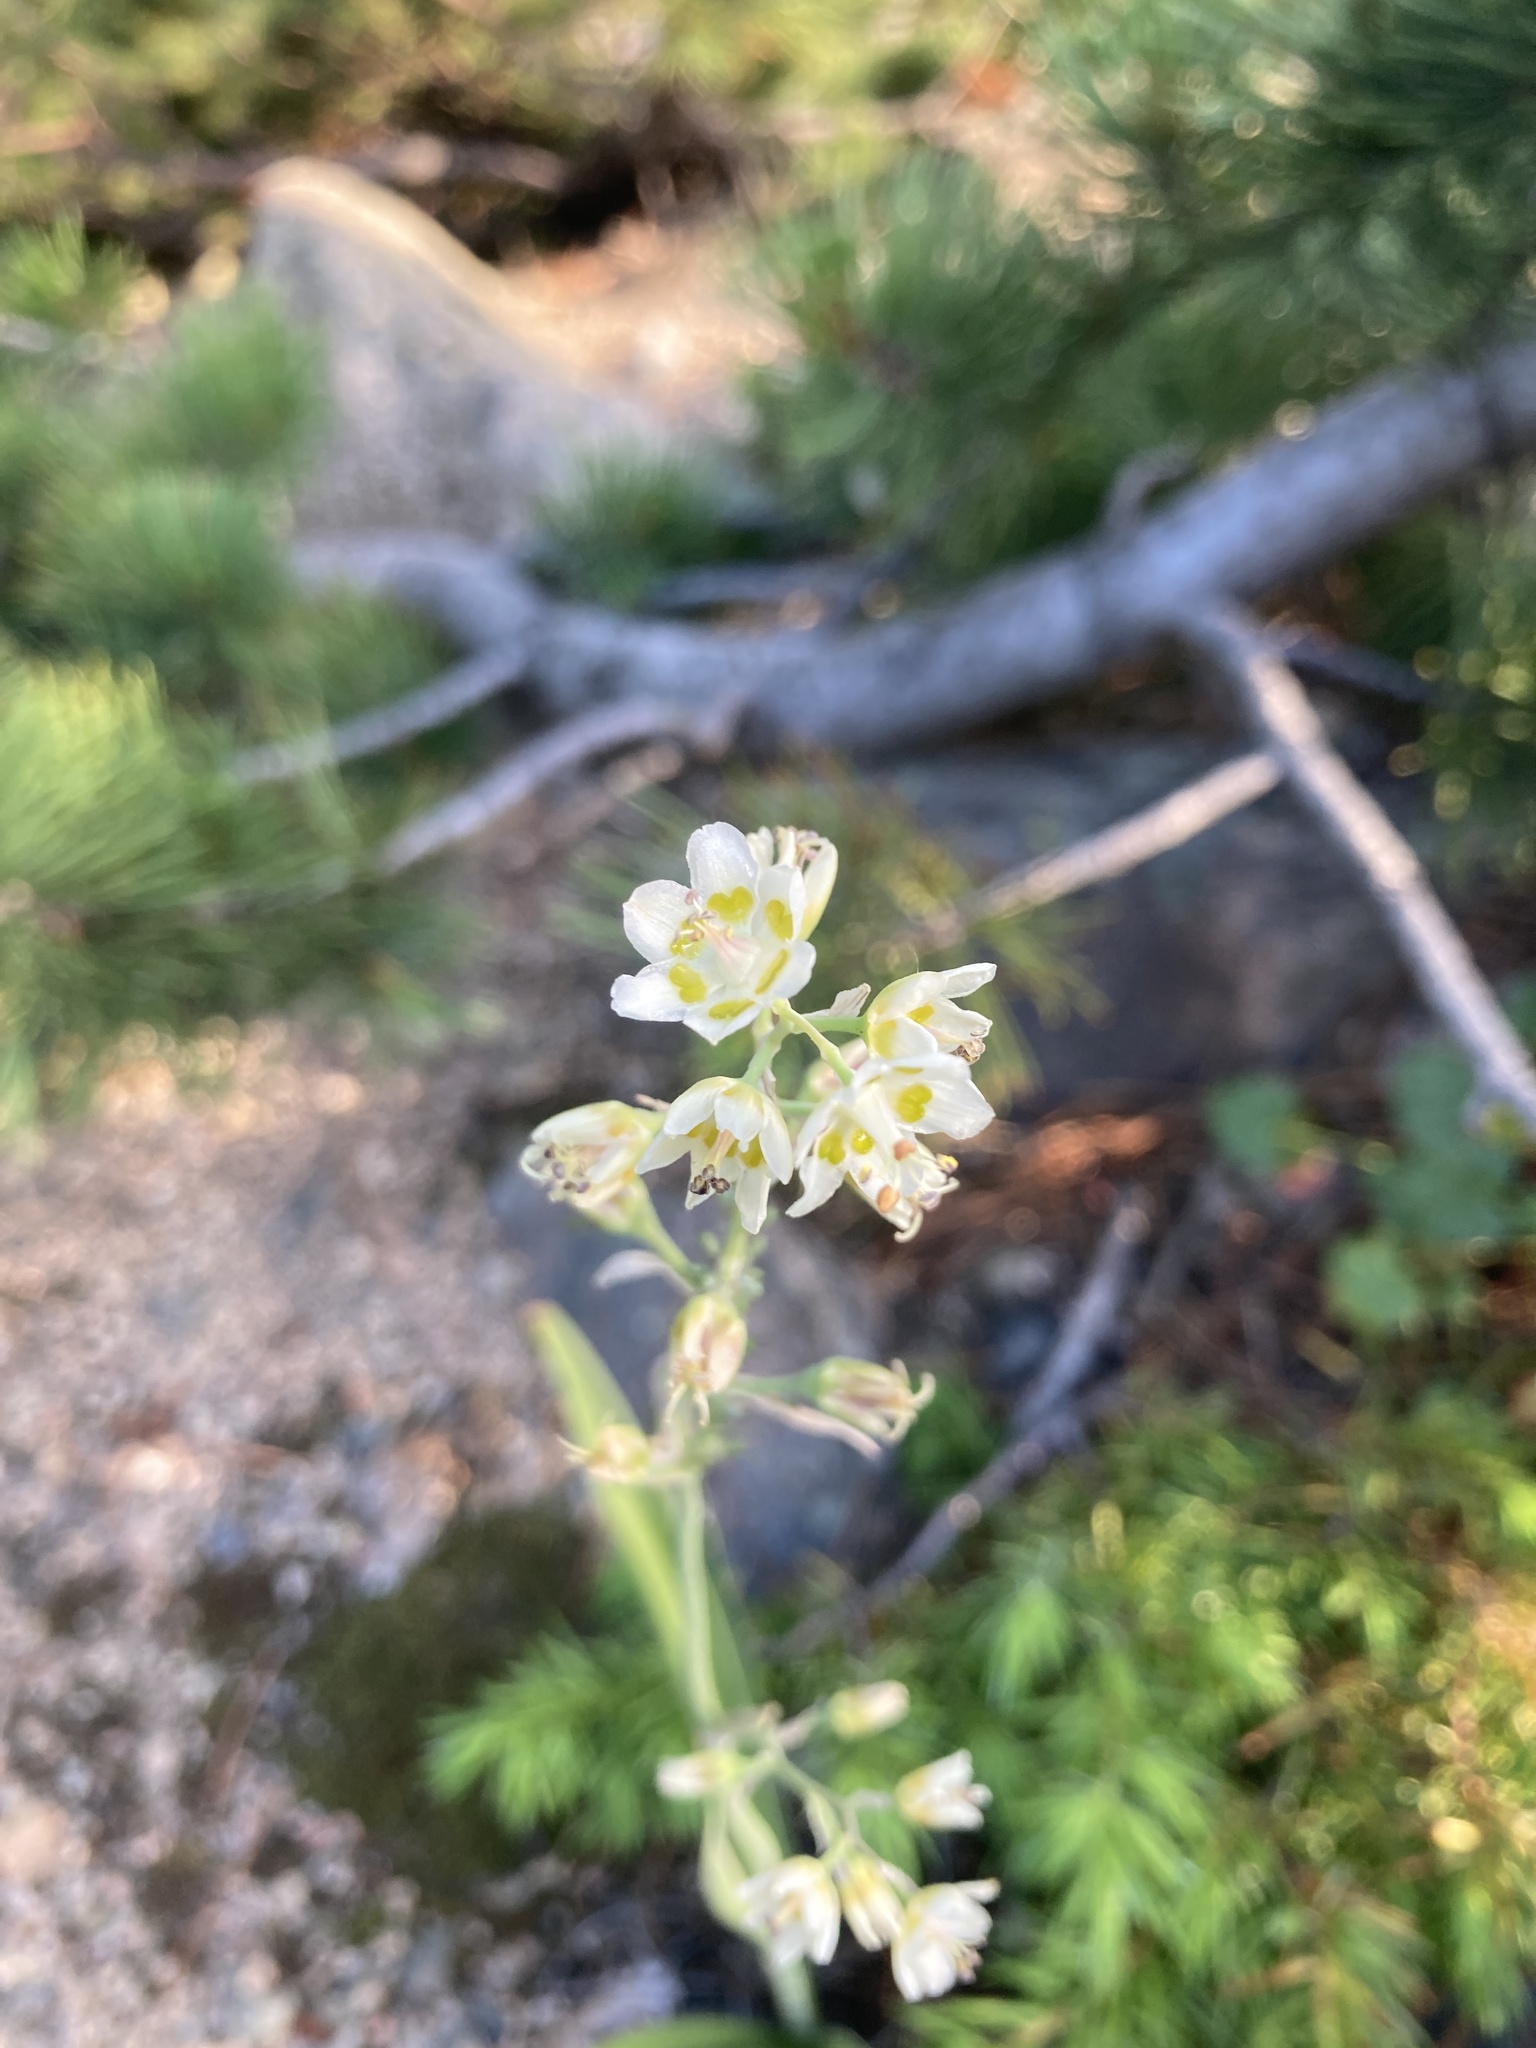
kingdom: Plantae
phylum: Tracheophyta
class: Liliopsida
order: Liliales
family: Melanthiaceae
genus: Anticlea
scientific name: Anticlea elegans
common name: Mountain death camas
